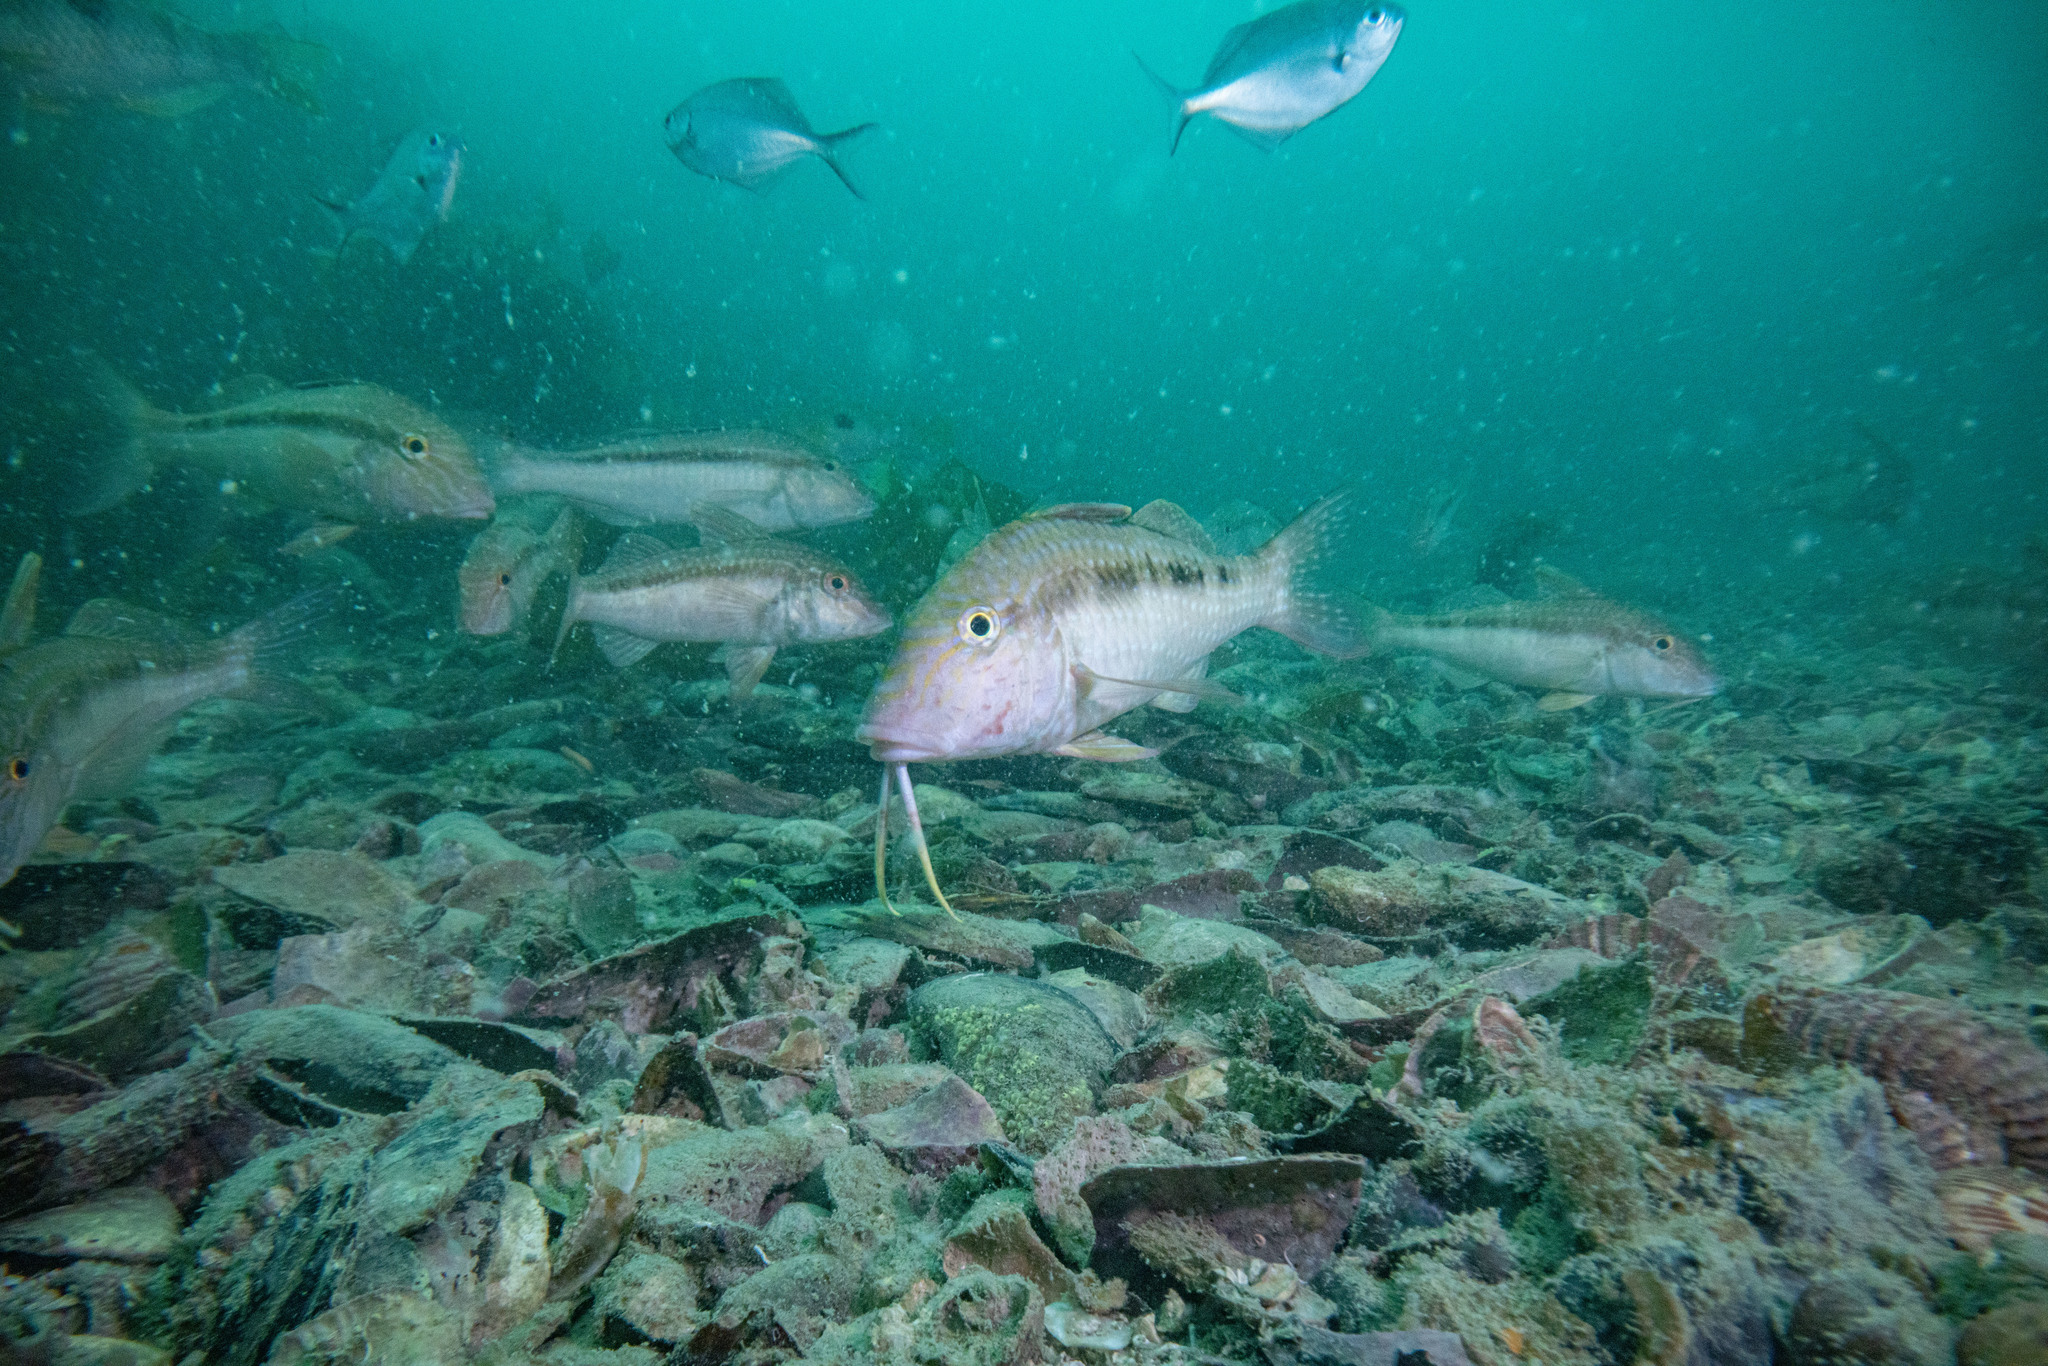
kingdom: Animalia
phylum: Chordata
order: Perciformes
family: Mullidae
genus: Upeneichthys
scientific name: Upeneichthys lineatus
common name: Red mullet
